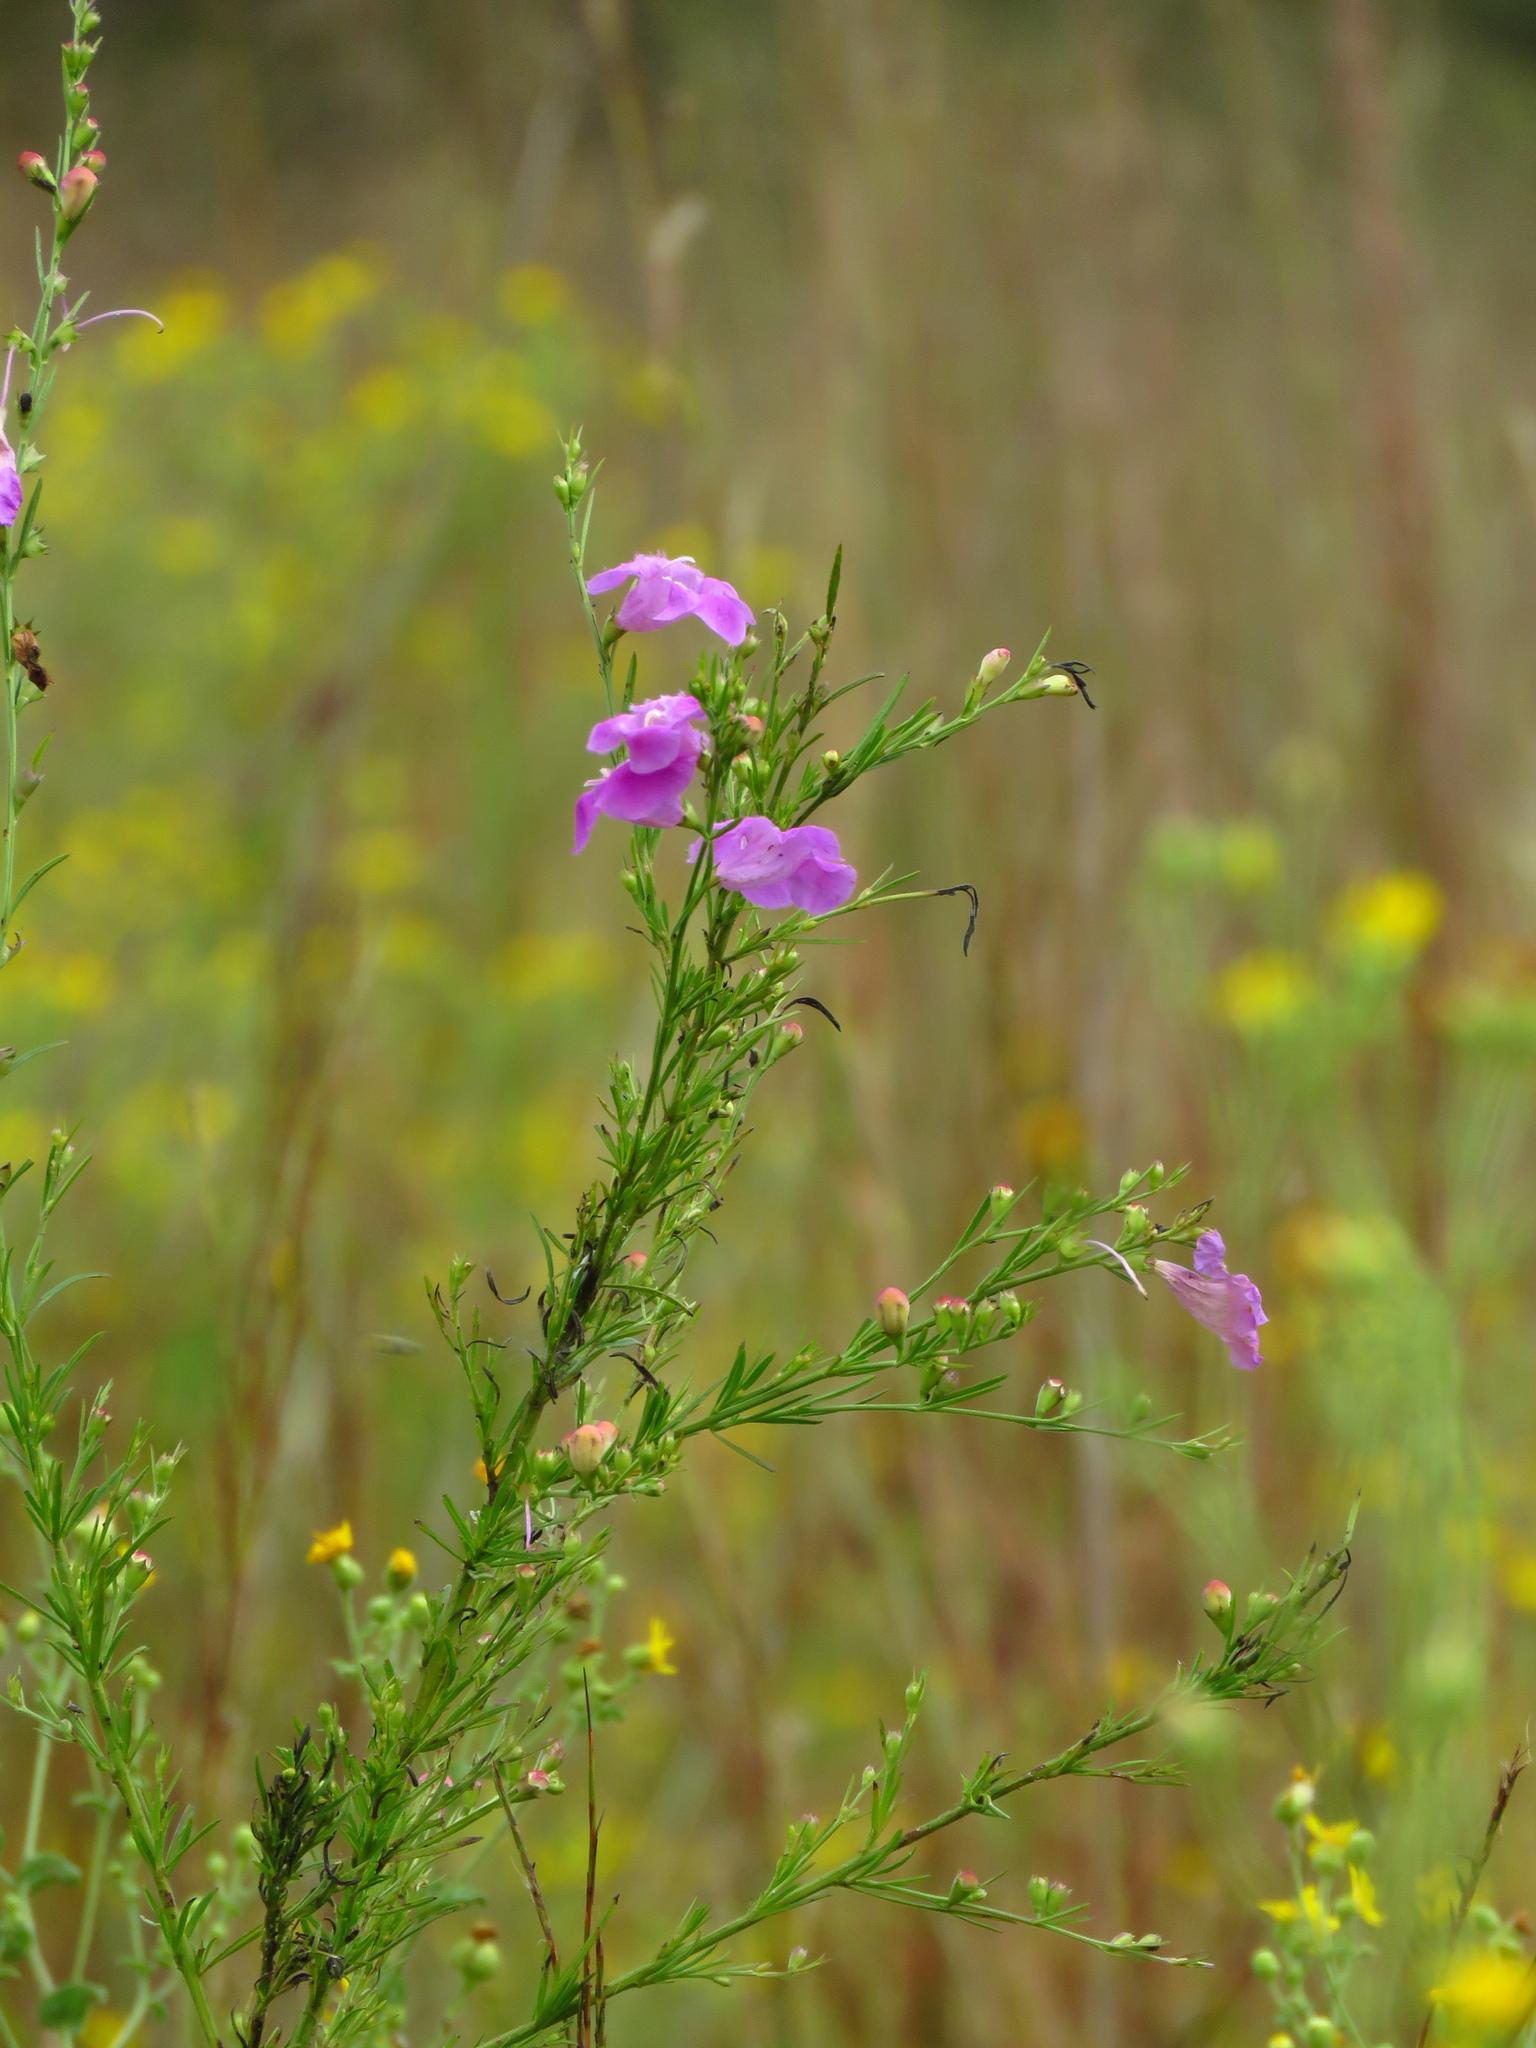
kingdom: Plantae
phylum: Tracheophyta
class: Magnoliopsida
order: Lamiales
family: Orobanchaceae
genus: Agalinis
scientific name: Agalinis fasciculata
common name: Beach false foxglove
